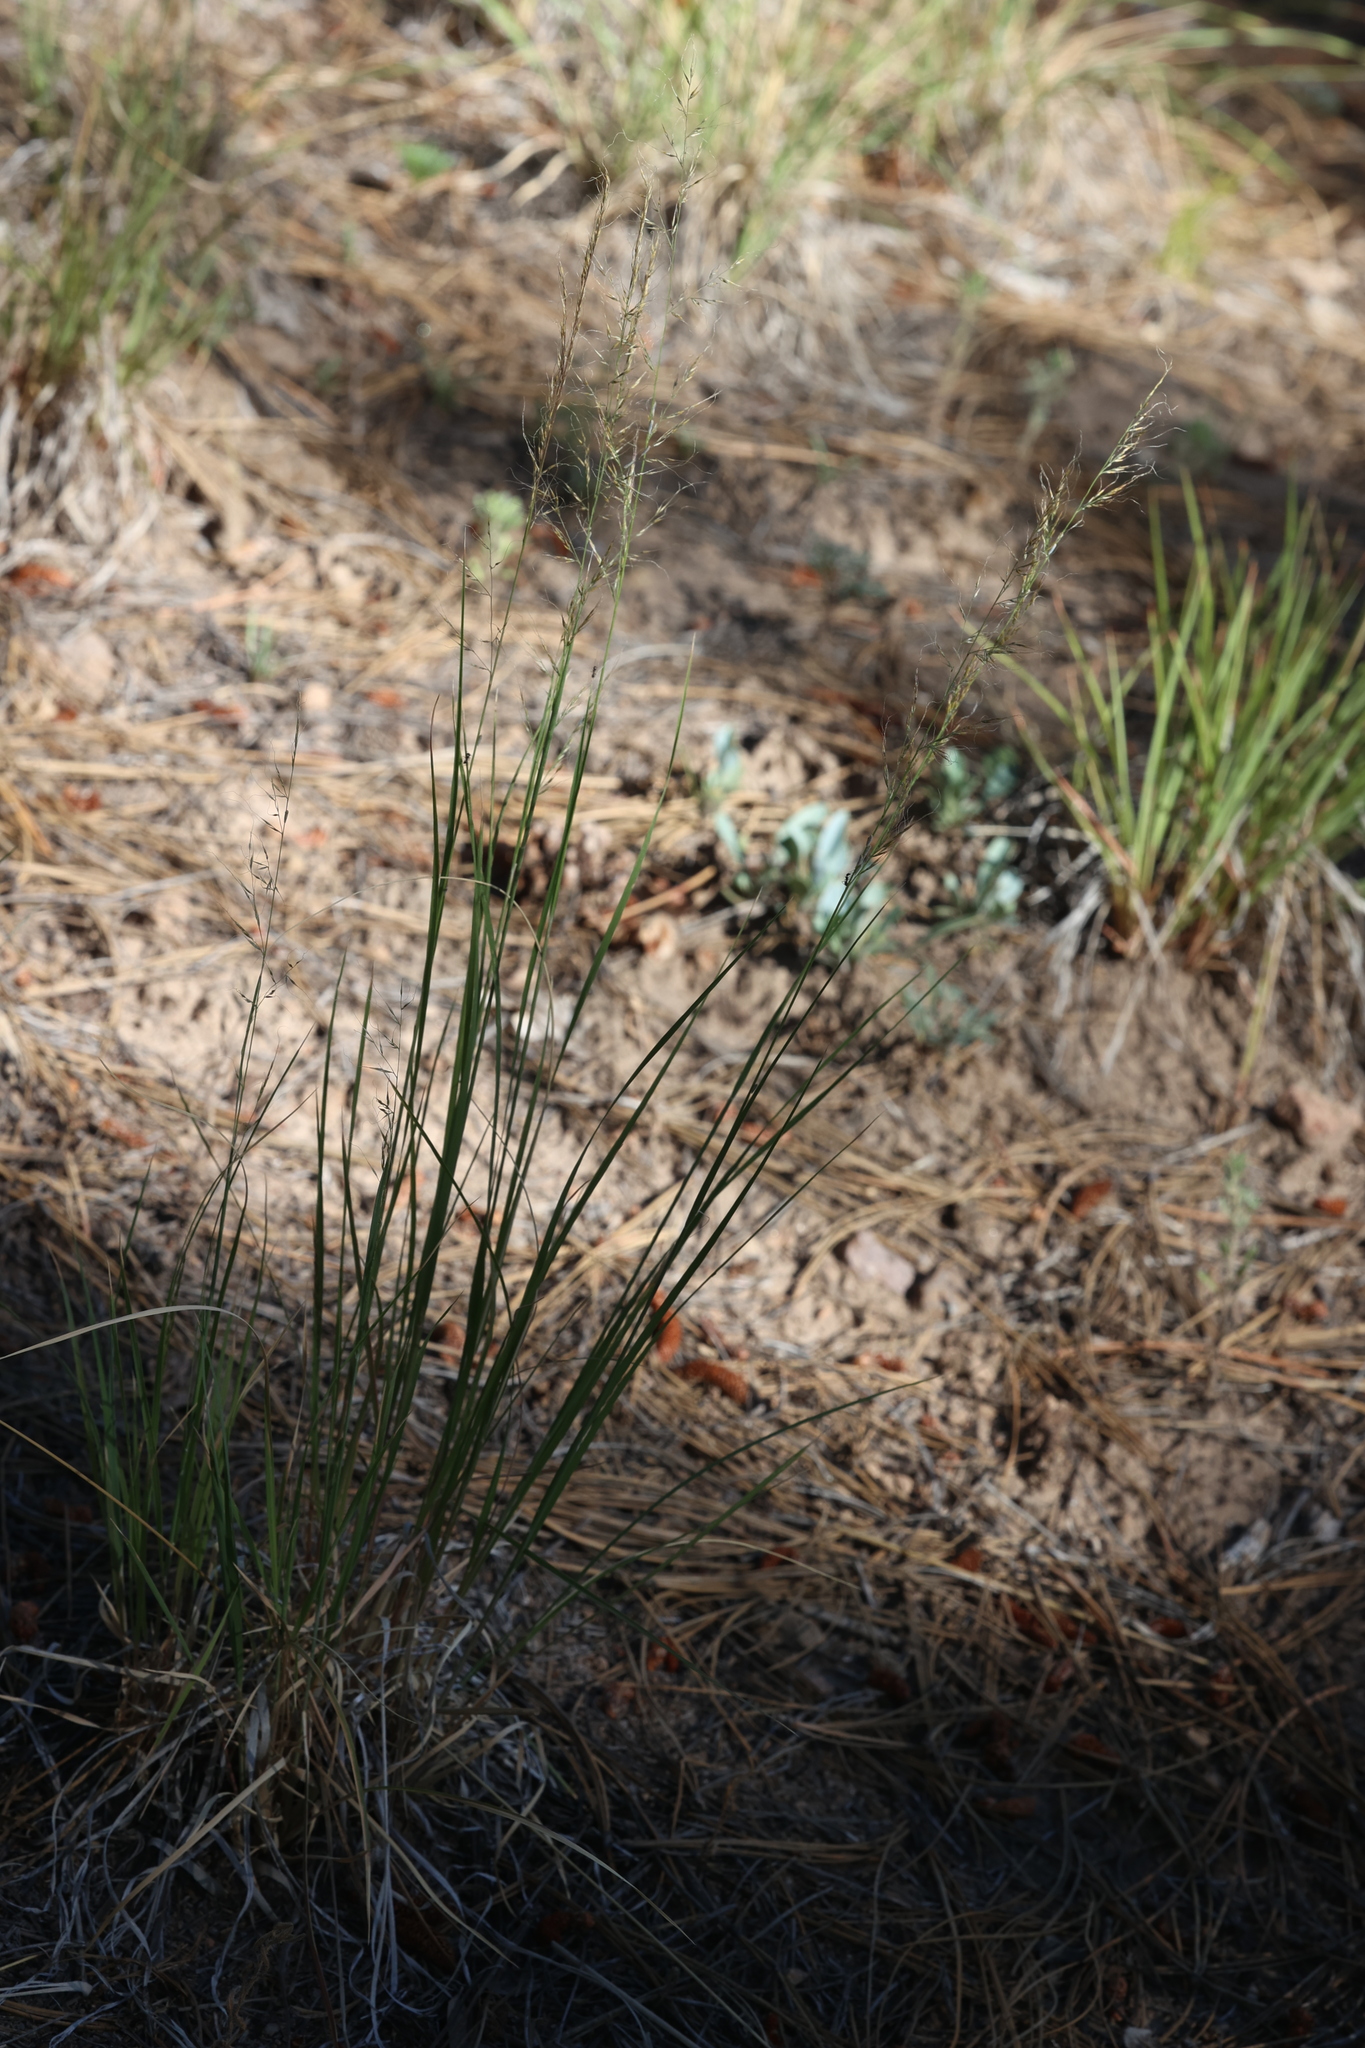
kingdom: Plantae
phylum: Tracheophyta
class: Liliopsida
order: Poales
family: Poaceae
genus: Muhlenbergia
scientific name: Muhlenbergia montana
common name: Mountain muhly
